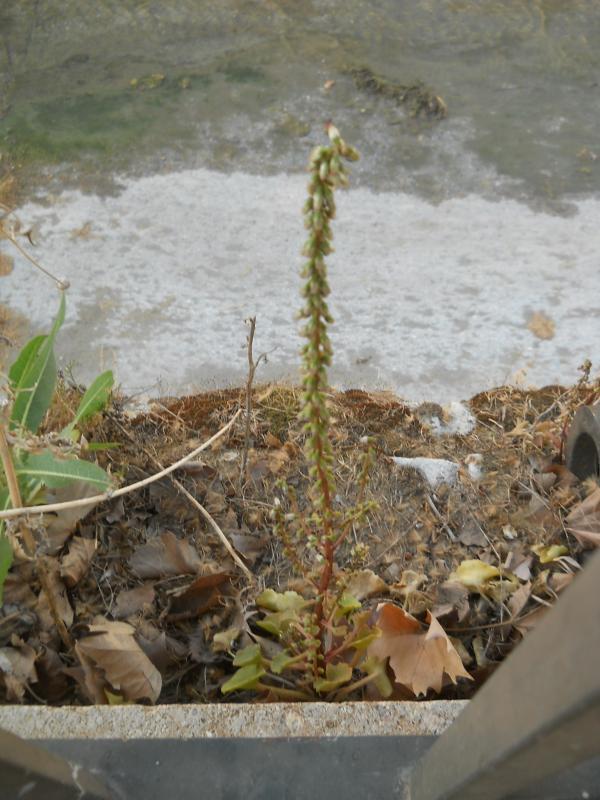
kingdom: Plantae
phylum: Tracheophyta
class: Magnoliopsida
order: Saxifragales
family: Crassulaceae
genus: Umbilicus
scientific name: Umbilicus rupestris
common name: Navelwort
